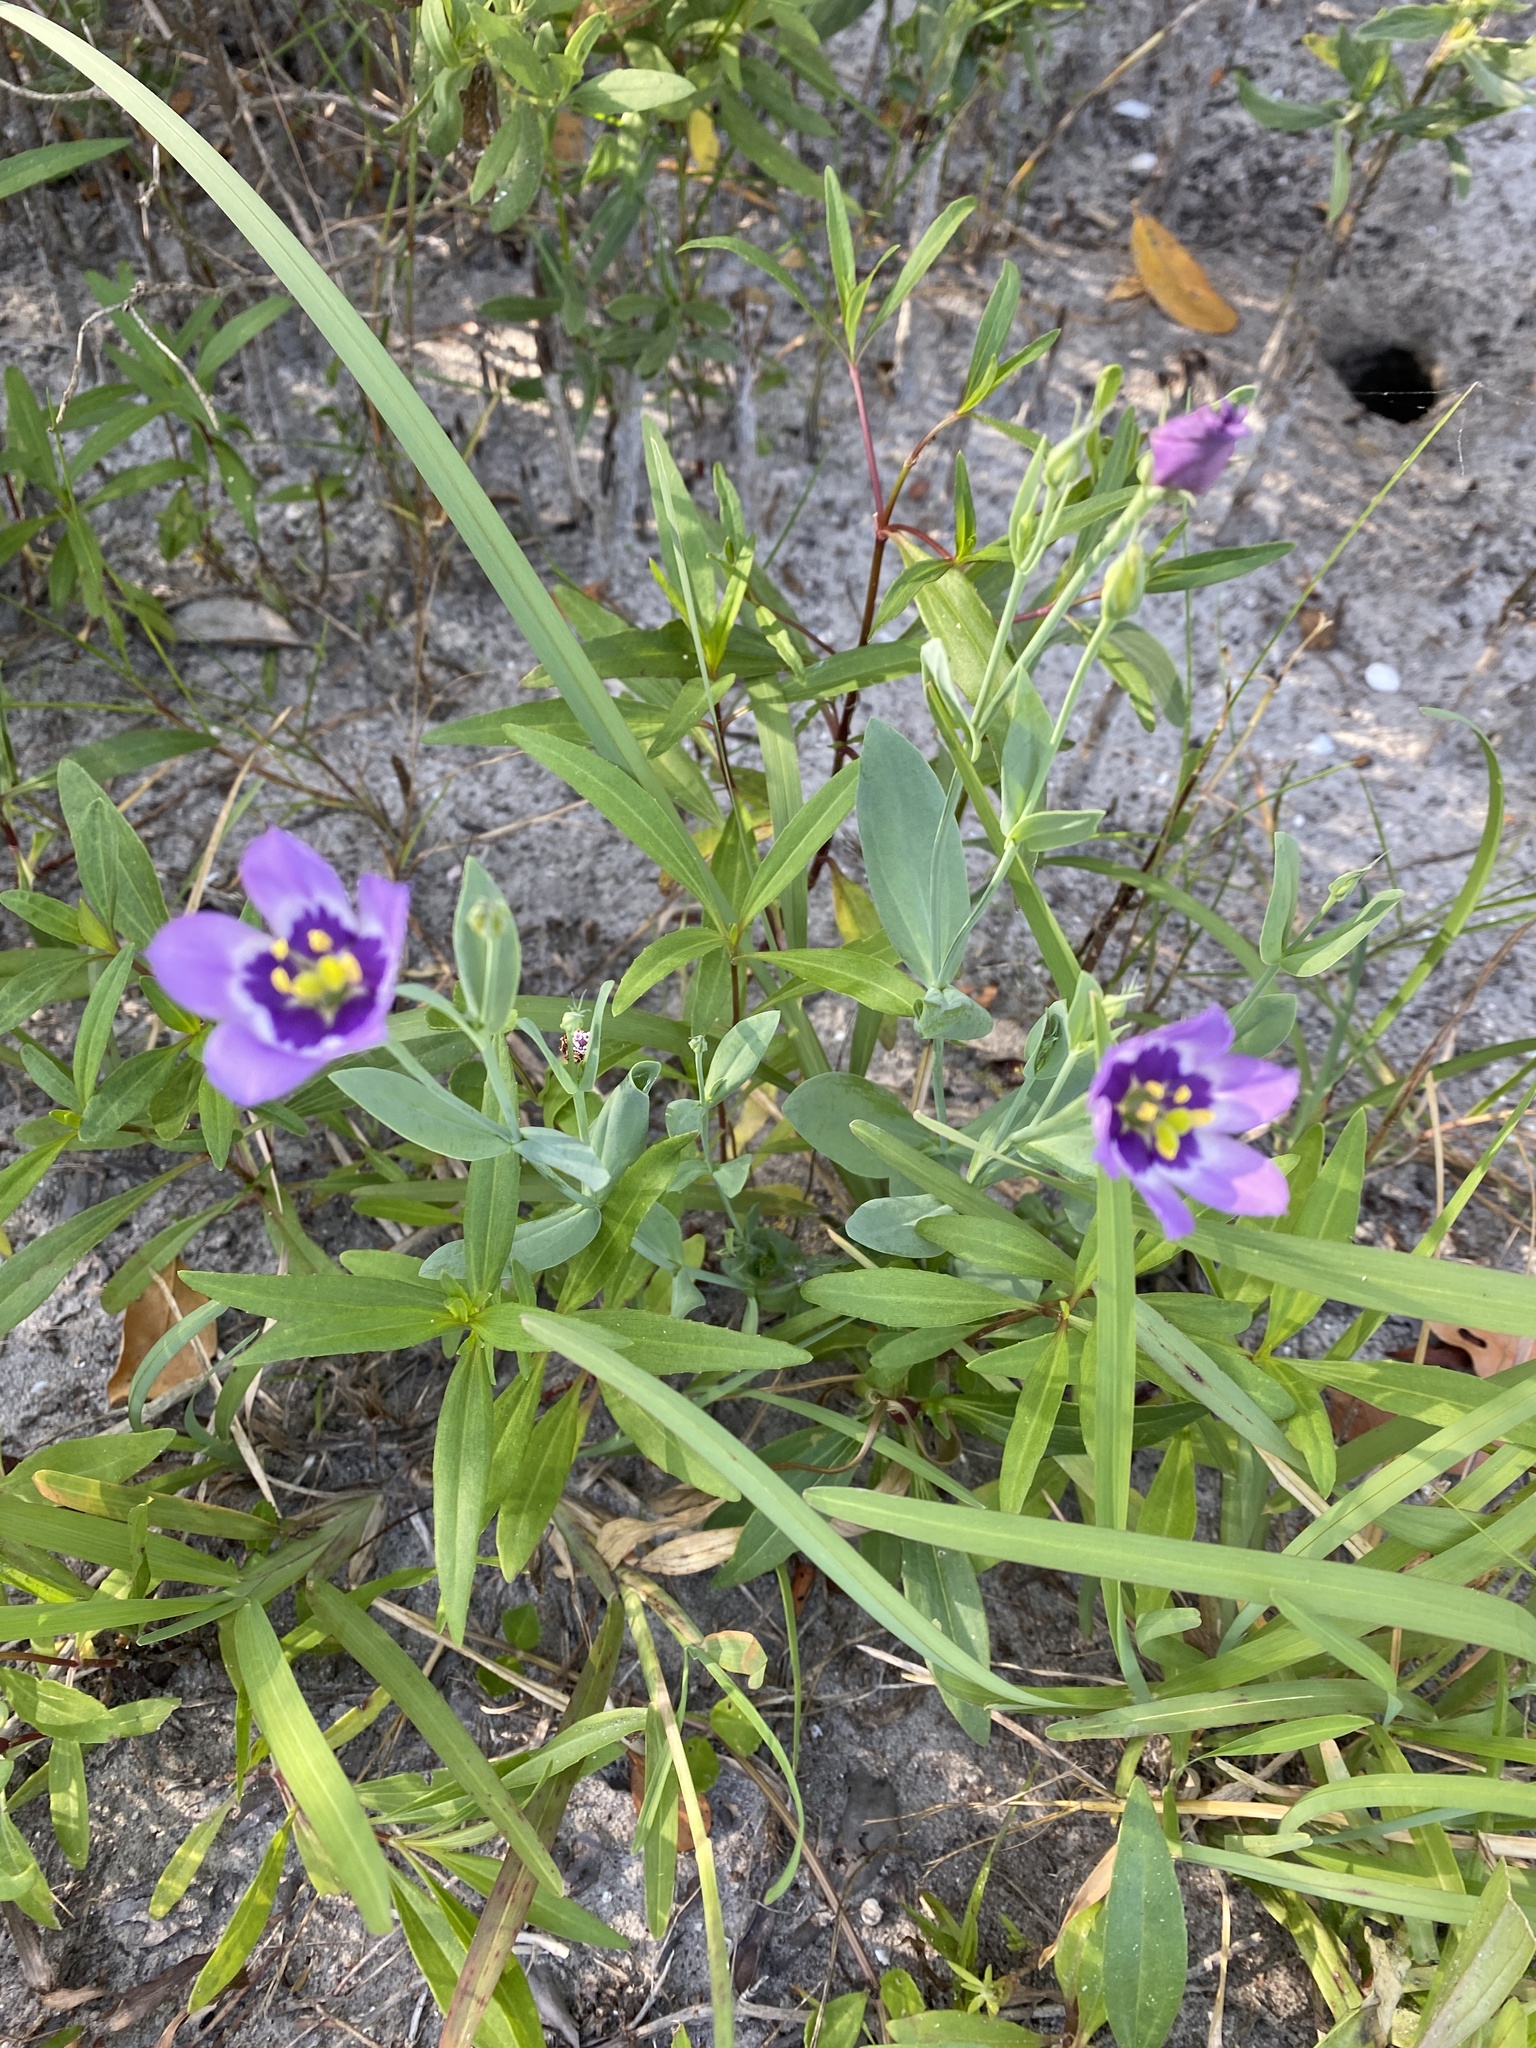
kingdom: Plantae
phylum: Tracheophyta
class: Magnoliopsida
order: Gentianales
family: Gentianaceae
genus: Eustoma
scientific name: Eustoma exaltatum
